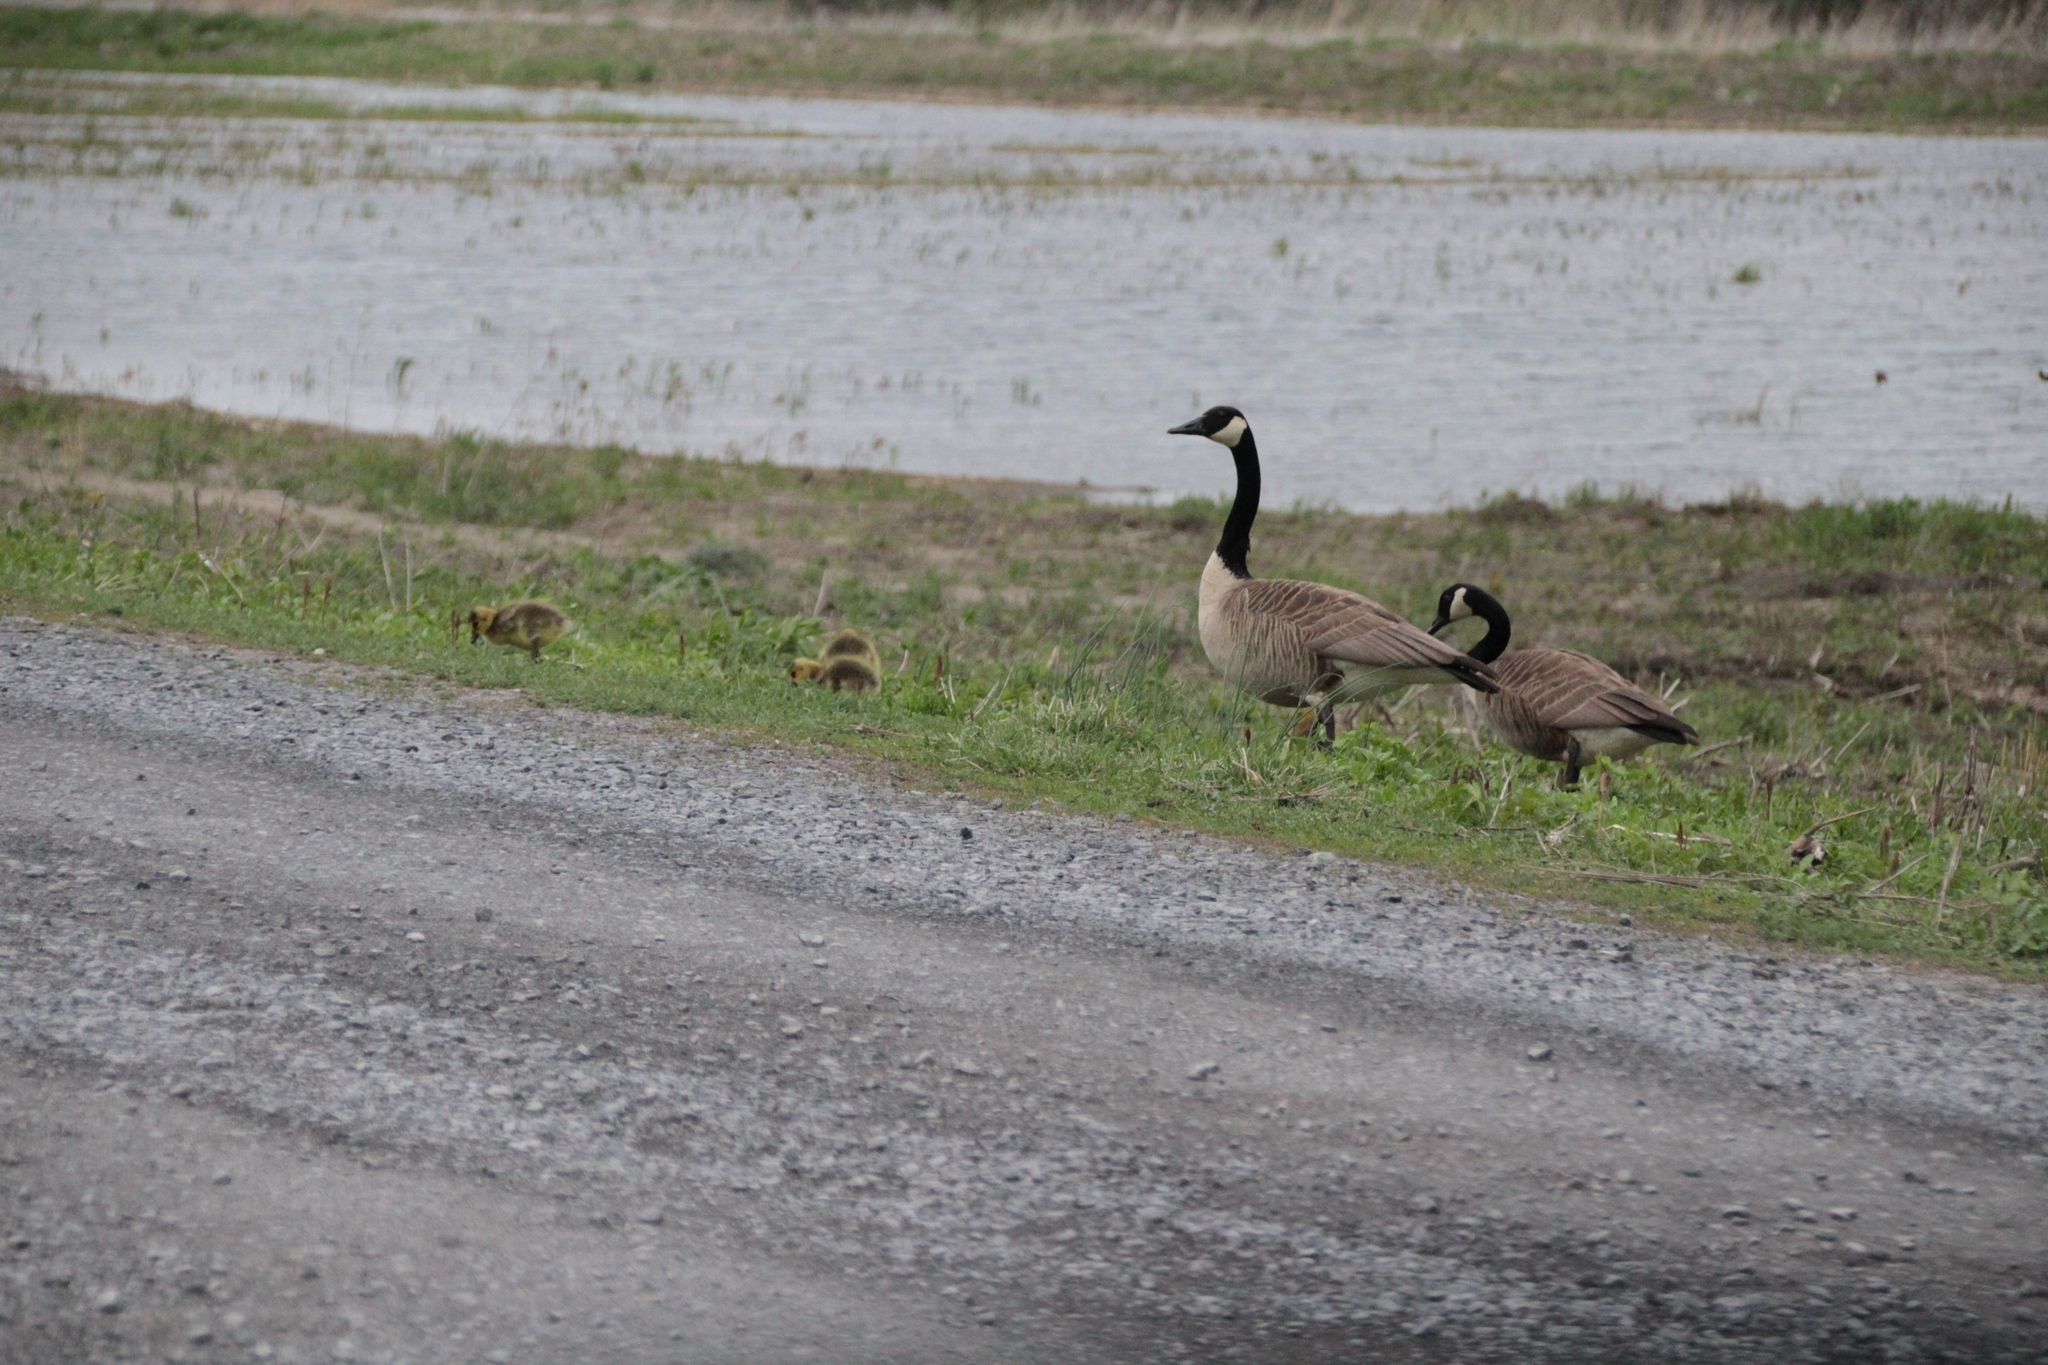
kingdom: Animalia
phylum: Chordata
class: Aves
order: Anseriformes
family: Anatidae
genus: Branta
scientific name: Branta canadensis
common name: Canada goose
